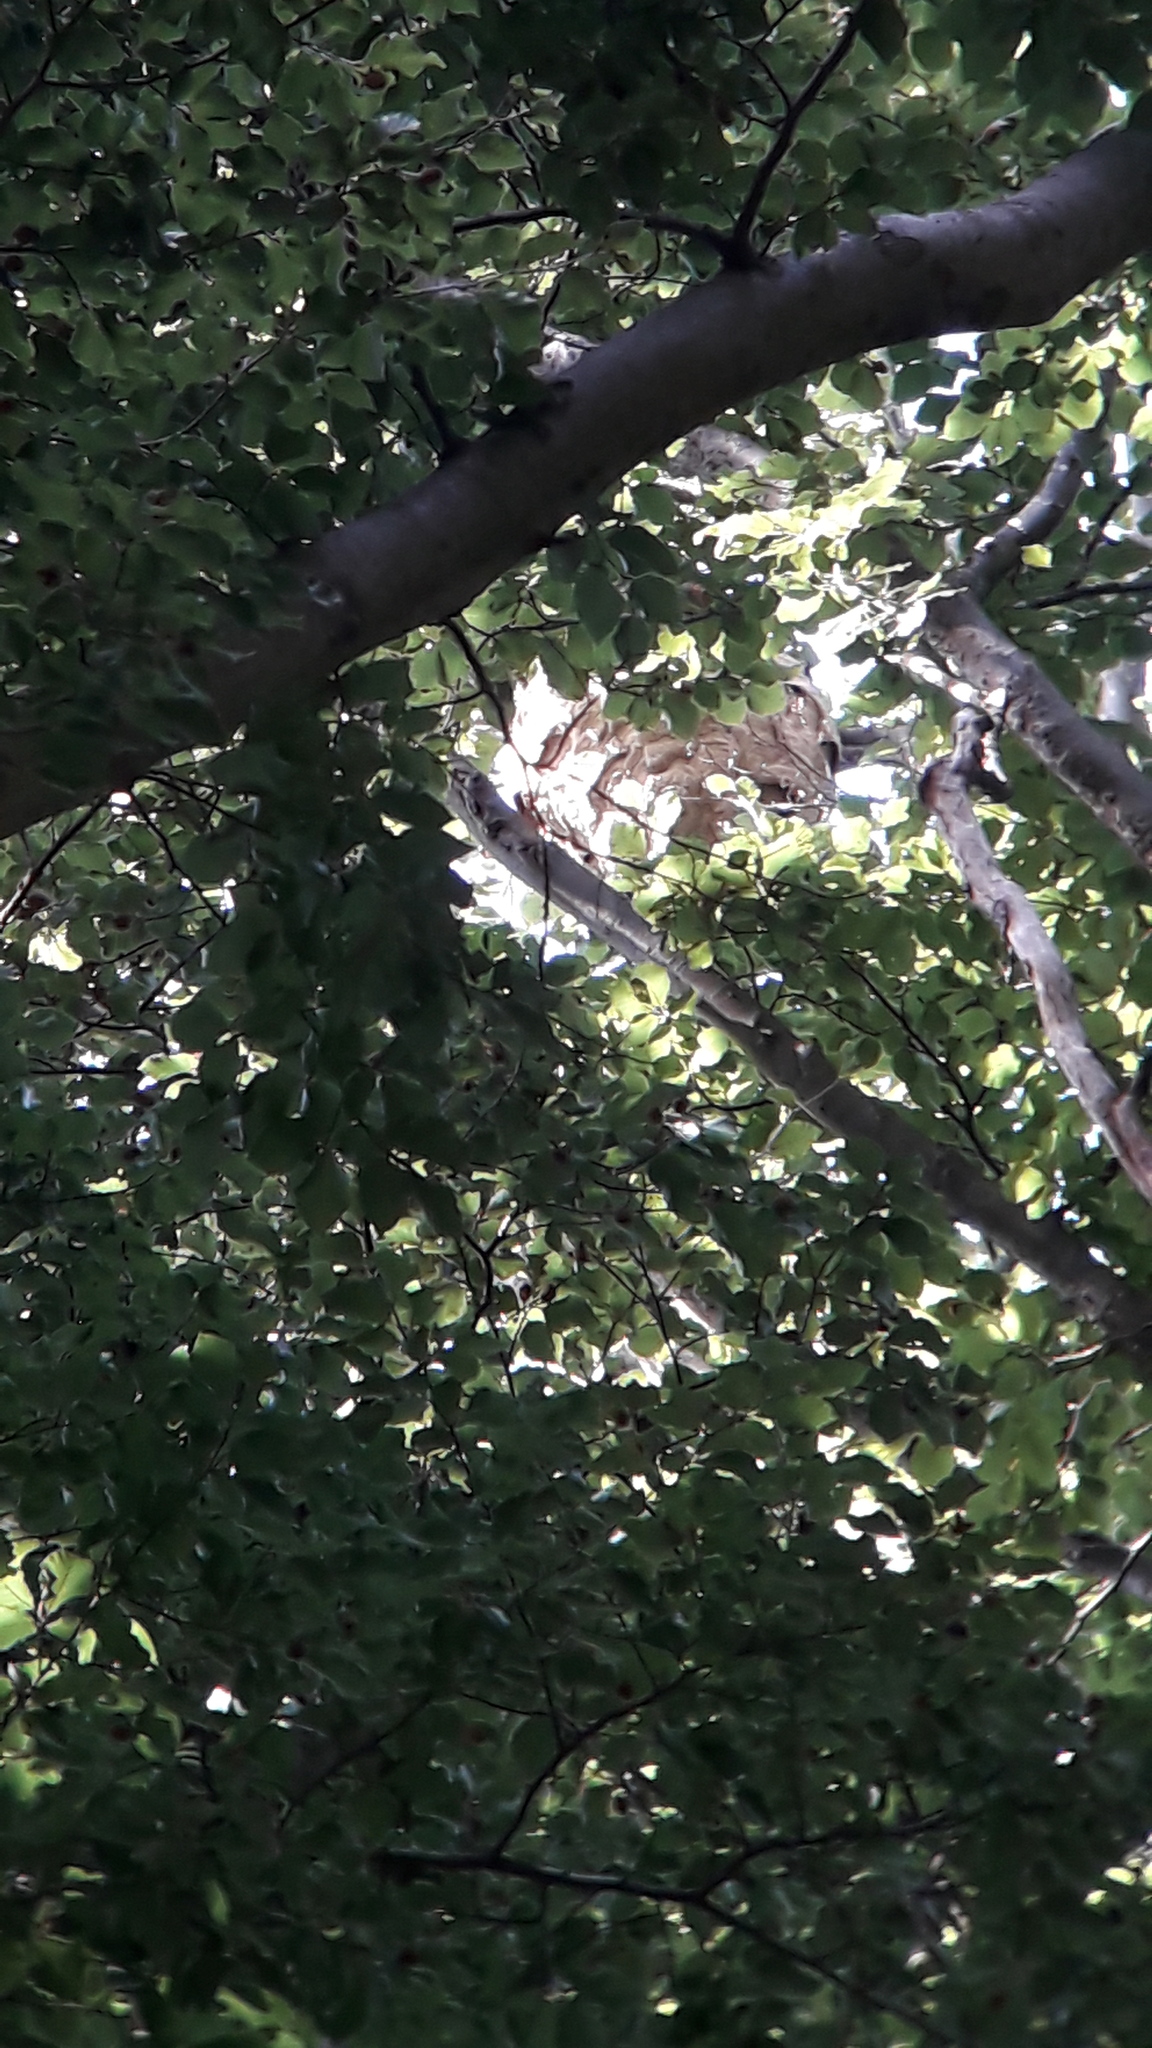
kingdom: Animalia
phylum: Arthropoda
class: Insecta
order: Hymenoptera
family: Vespidae
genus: Vespa
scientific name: Vespa velutina
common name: Asian hornet
